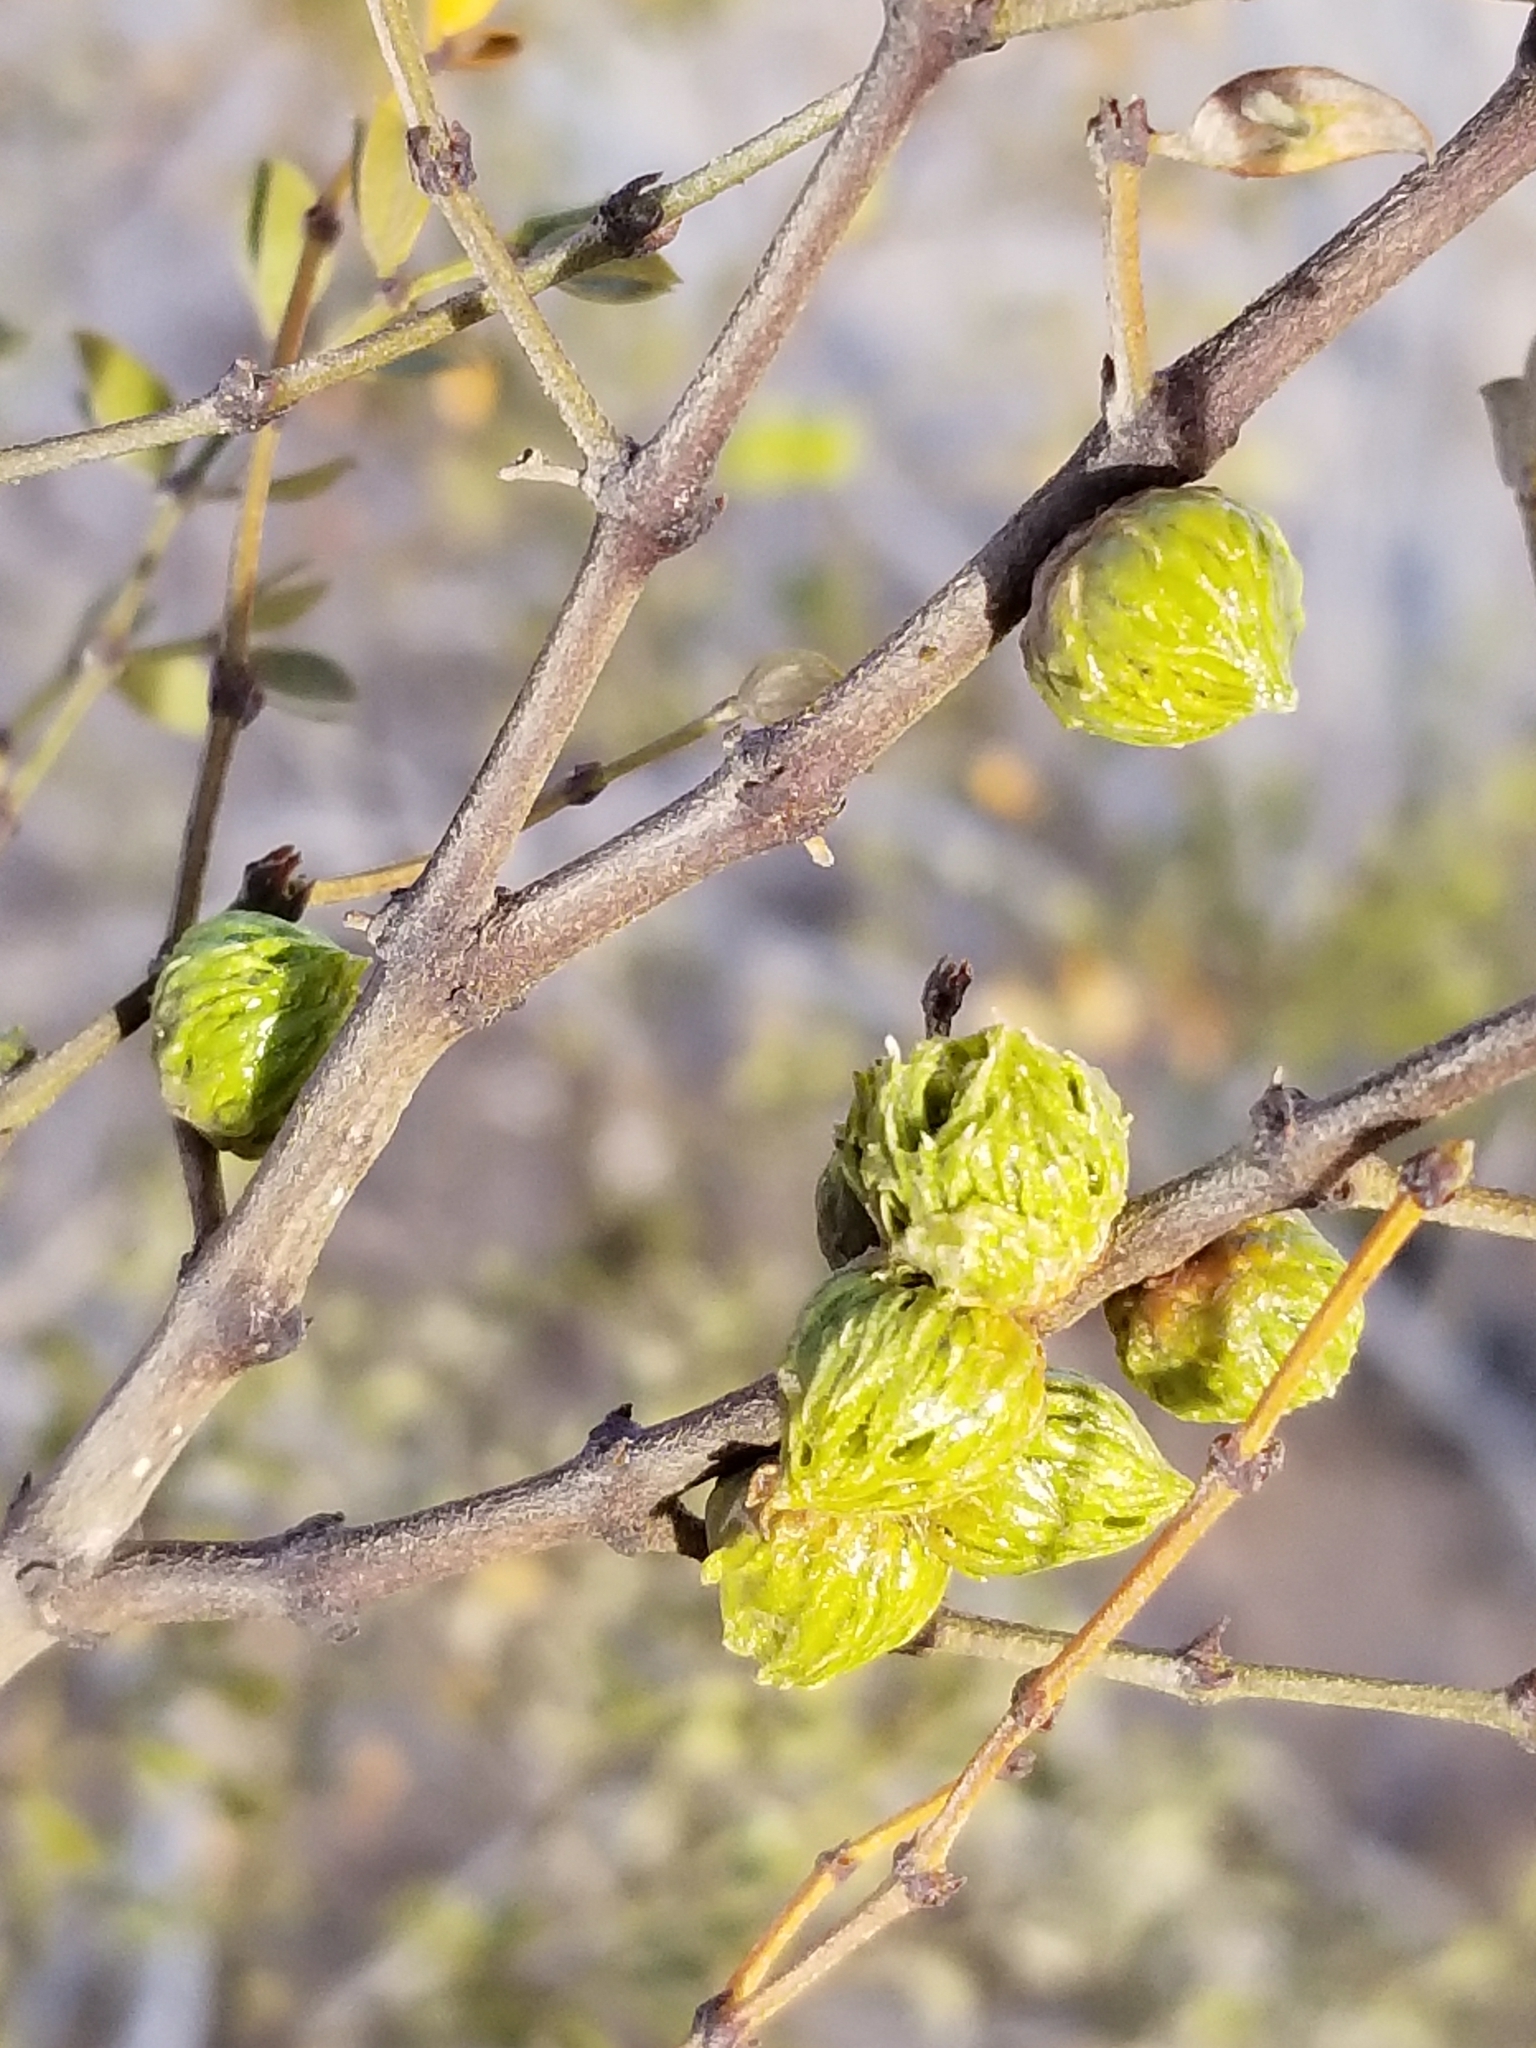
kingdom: Animalia
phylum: Arthropoda
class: Insecta
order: Diptera
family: Cecidomyiidae
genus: Asphondylia
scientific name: Asphondylia foliosa
